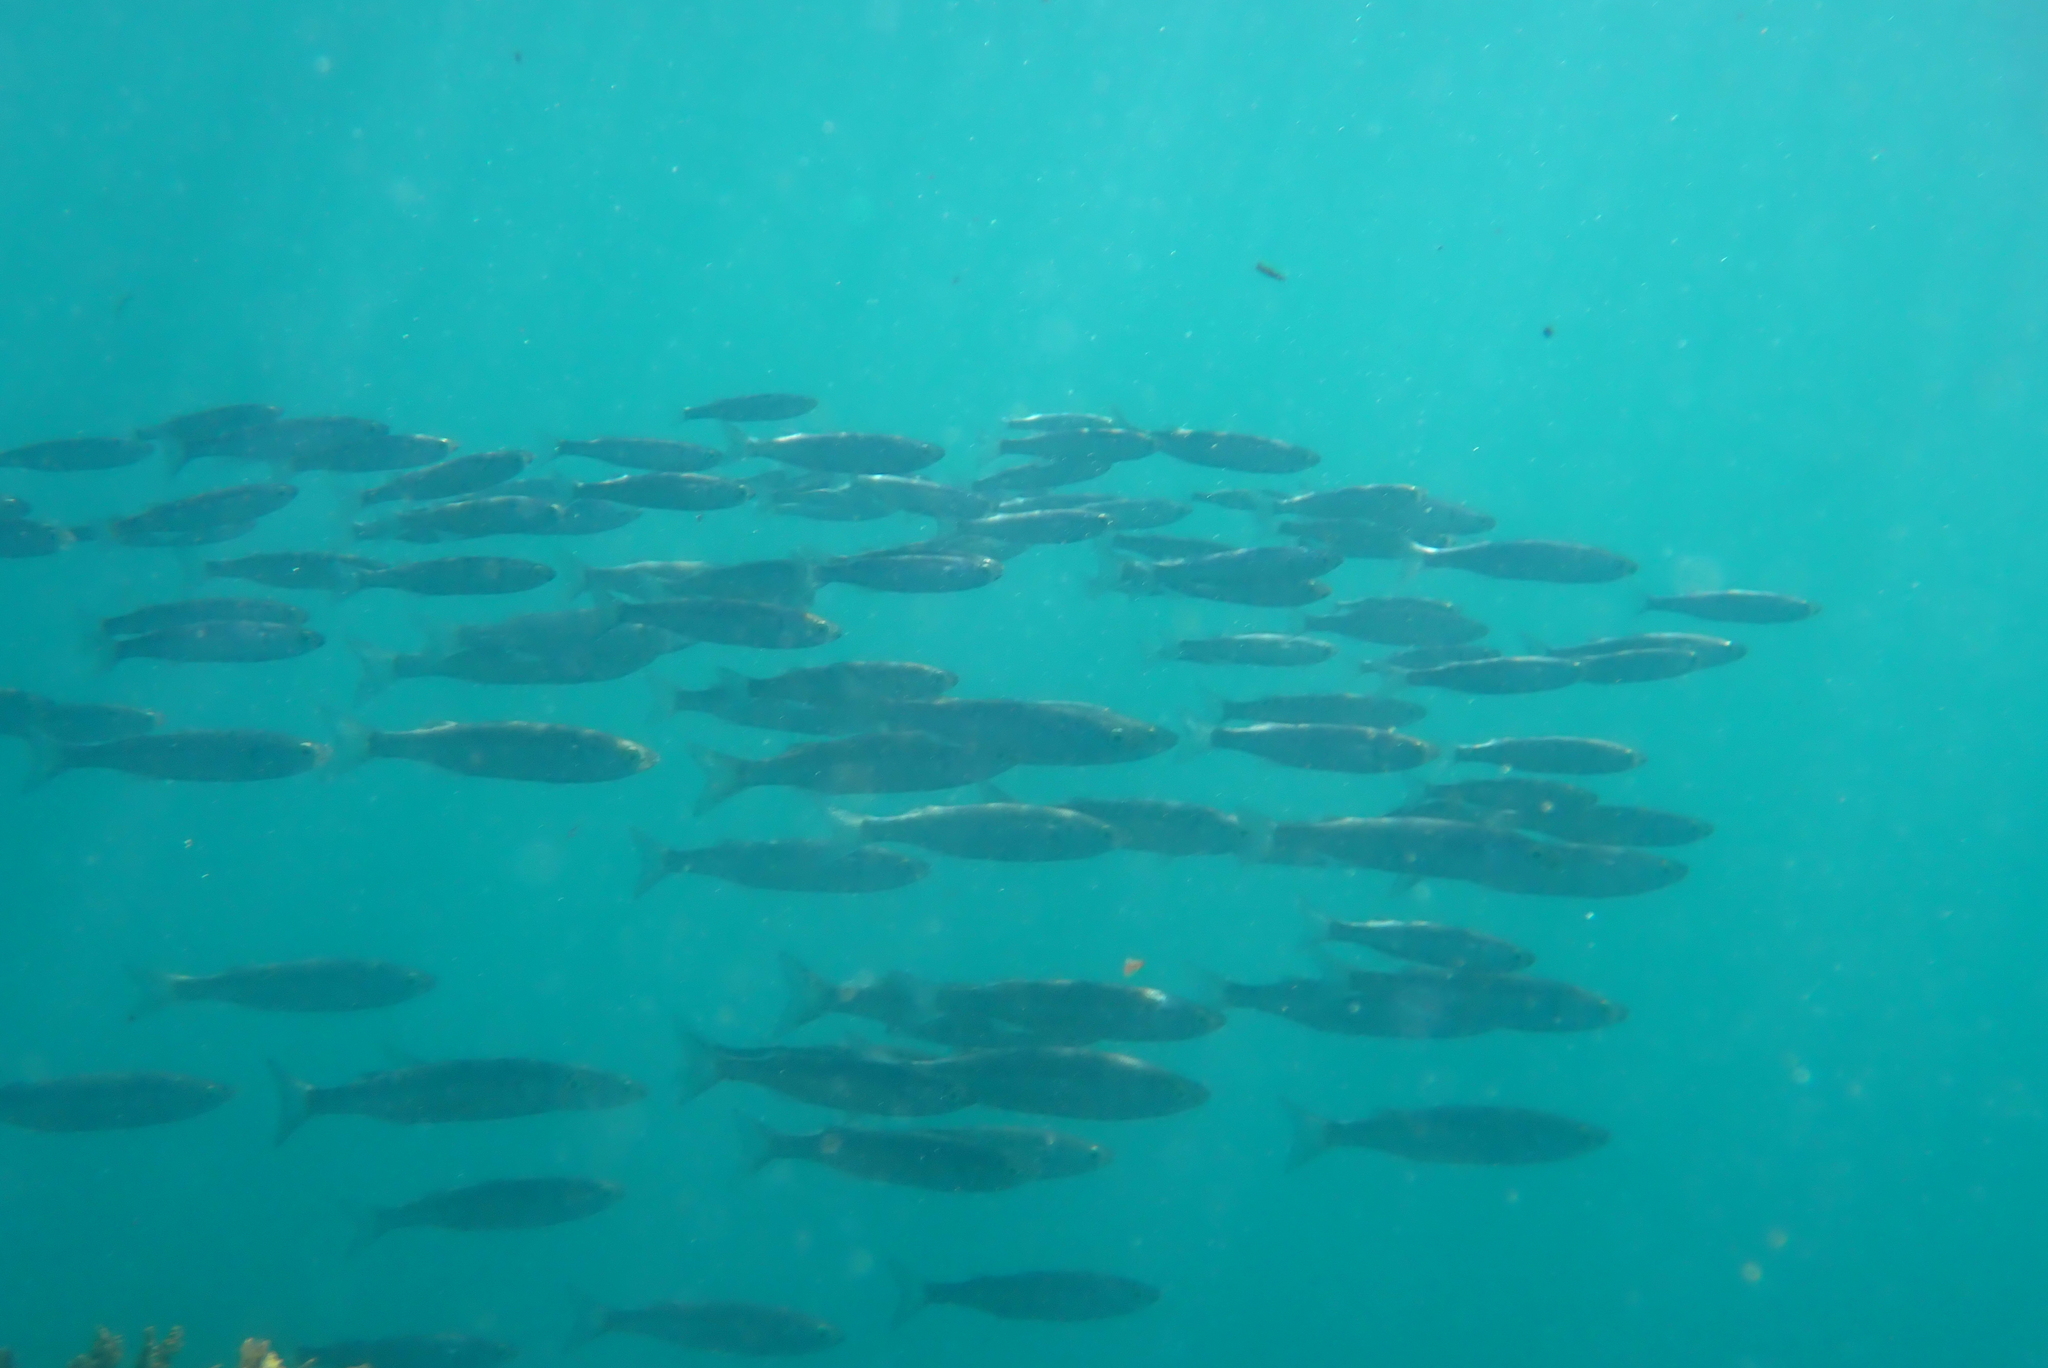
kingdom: Animalia
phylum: Chordata
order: Mugiliformes
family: Mugilidae
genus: Aldrichetta
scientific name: Aldrichetta forsteri
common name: Yellow-eye mullet
